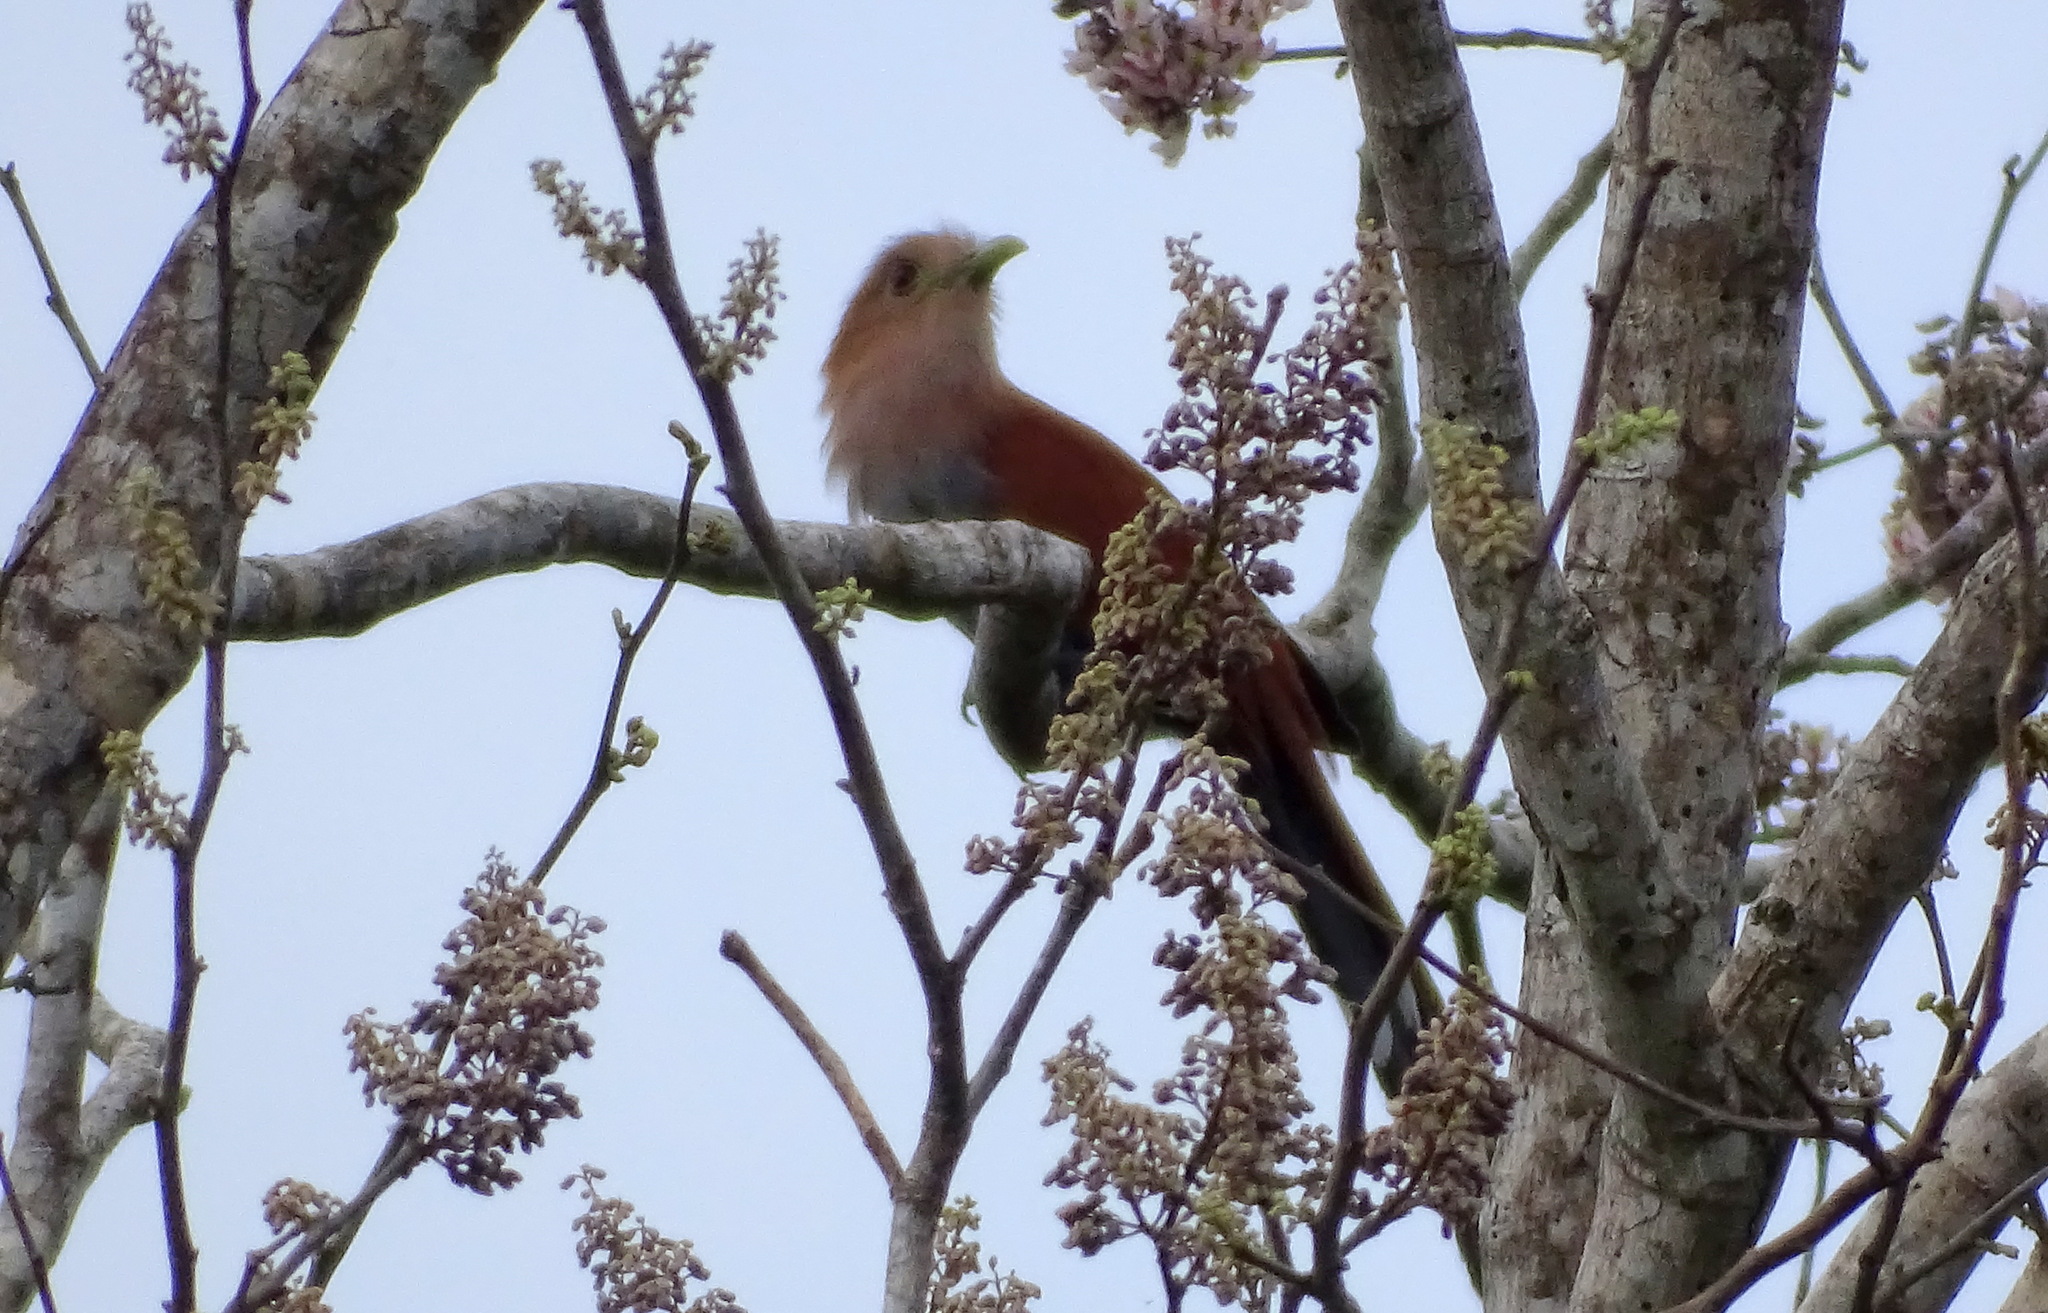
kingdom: Animalia
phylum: Chordata
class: Aves
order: Cuculiformes
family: Cuculidae
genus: Piaya
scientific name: Piaya cayana
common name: Squirrel cuckoo
